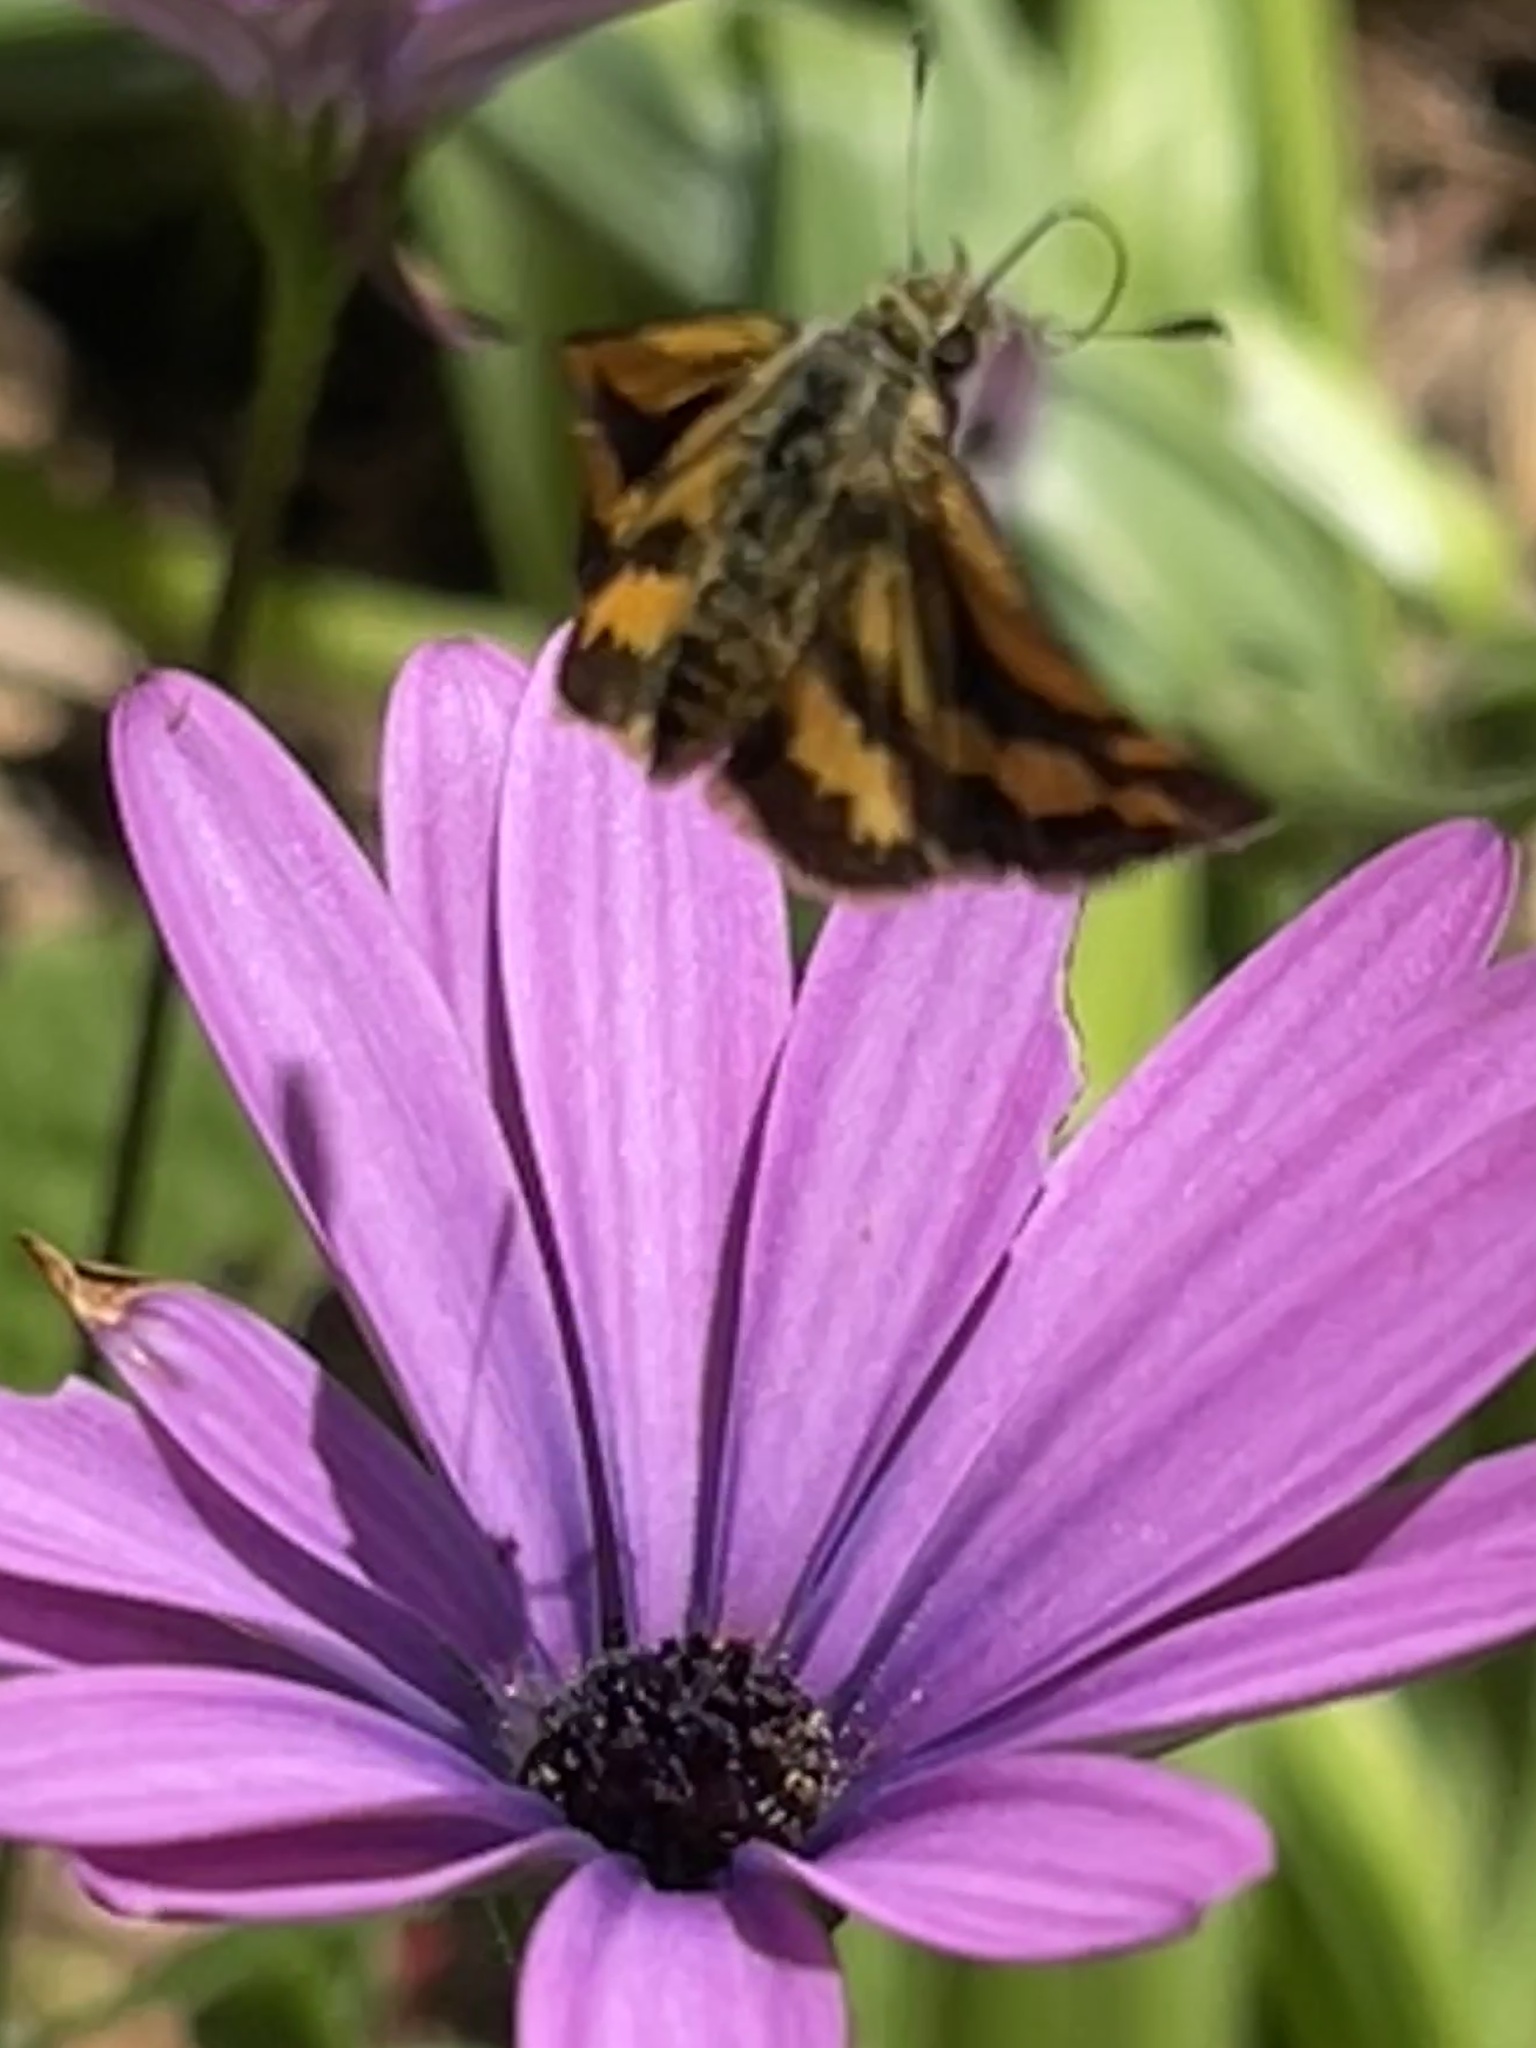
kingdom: Animalia
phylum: Arthropoda
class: Insecta
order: Lepidoptera
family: Hesperiidae
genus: Ocybadistes
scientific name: Ocybadistes walkeri
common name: Yellow-banded dart
